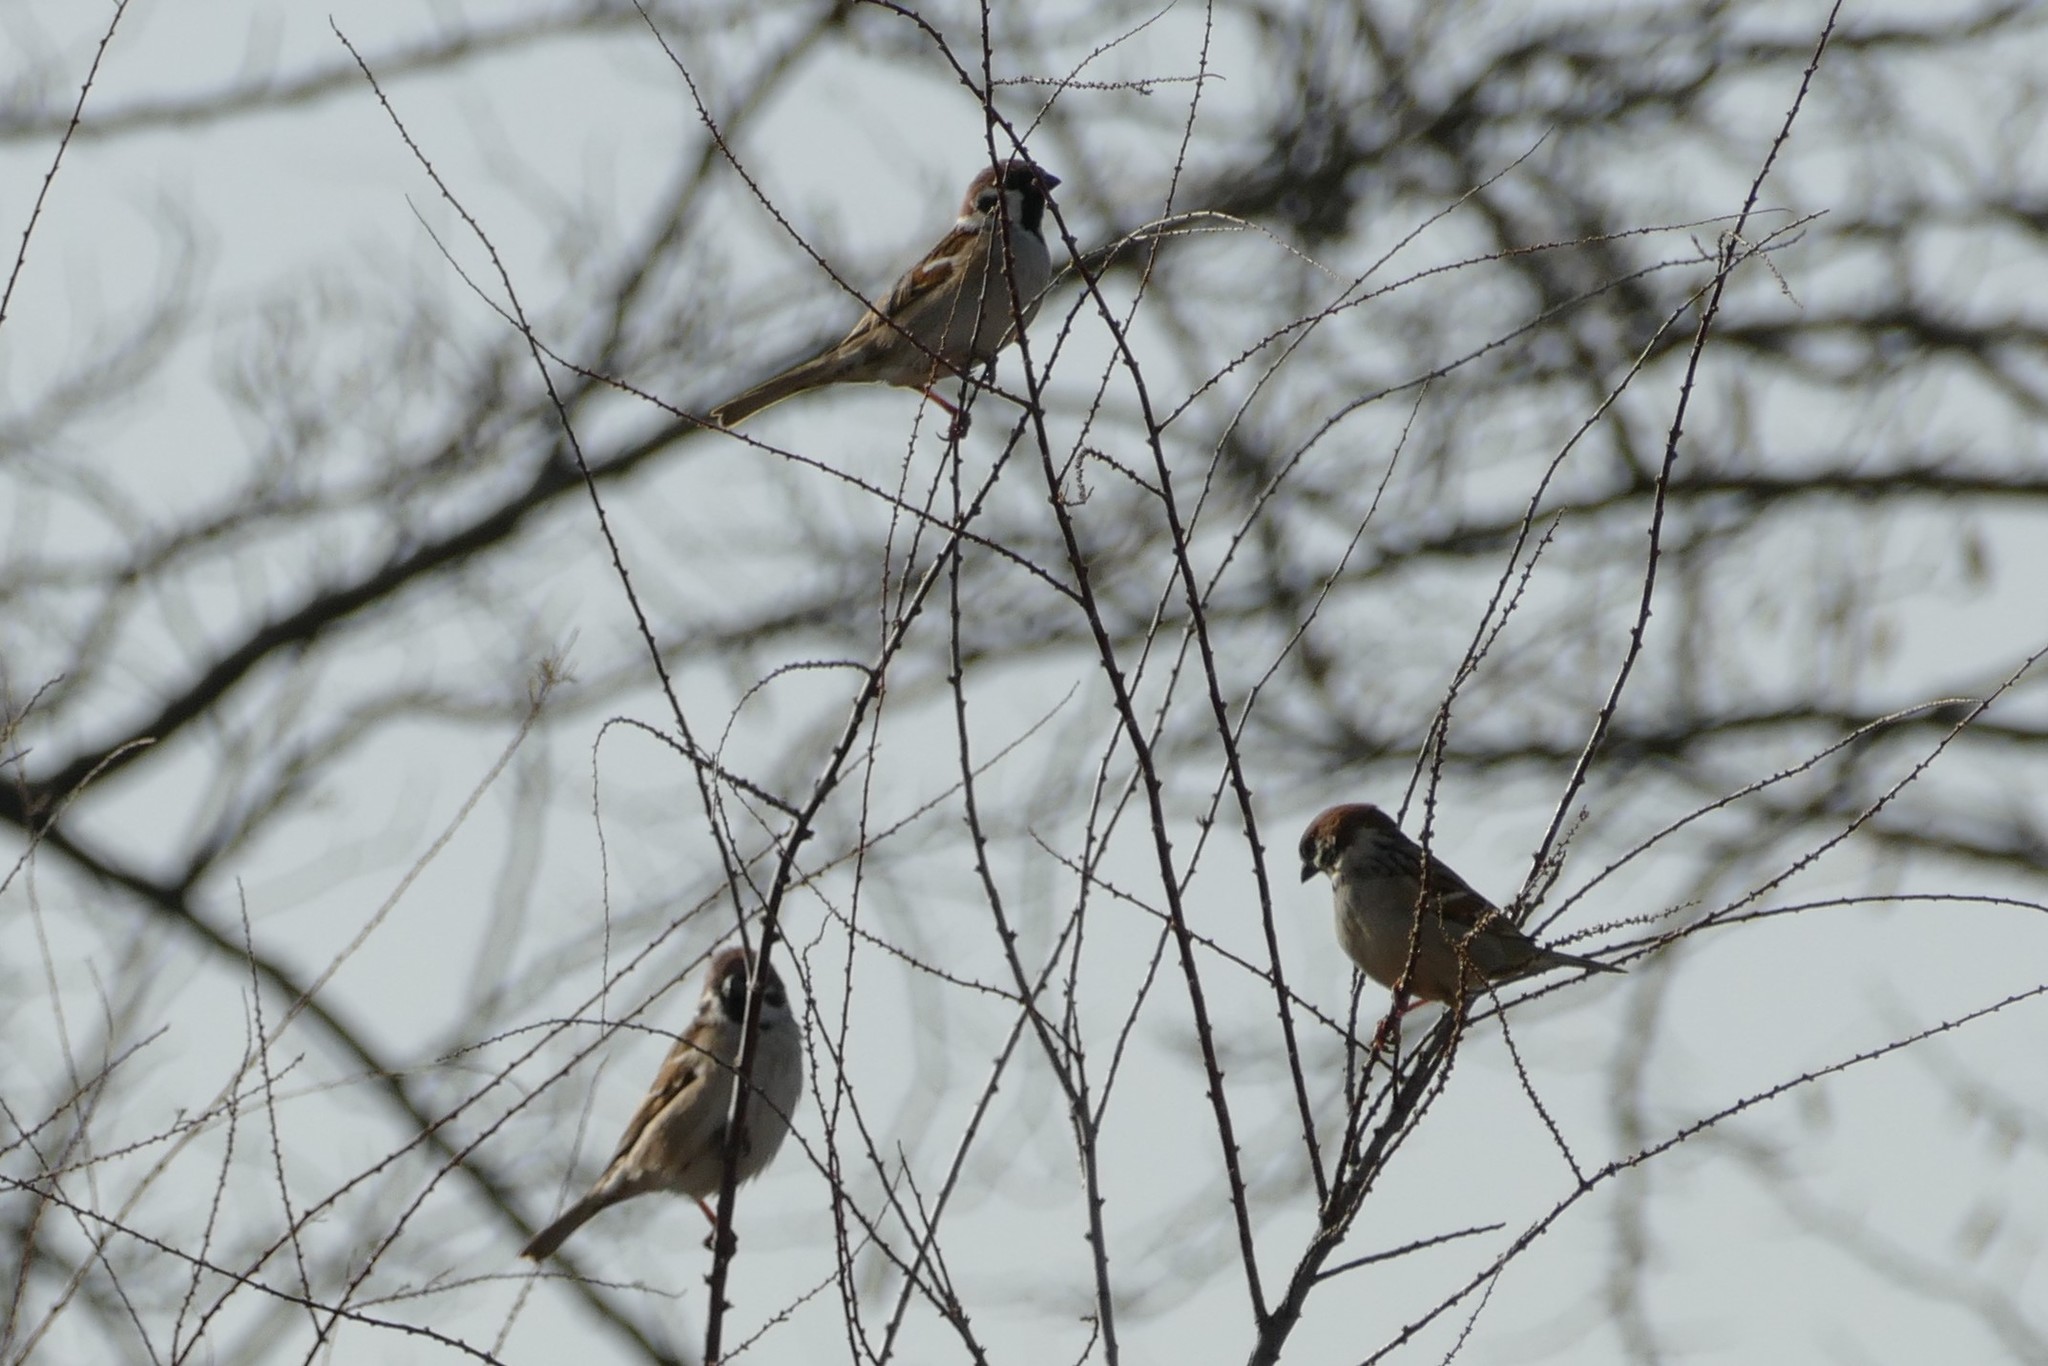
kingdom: Animalia
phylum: Chordata
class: Aves
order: Passeriformes
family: Passeridae
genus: Passer
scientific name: Passer montanus
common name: Eurasian tree sparrow
